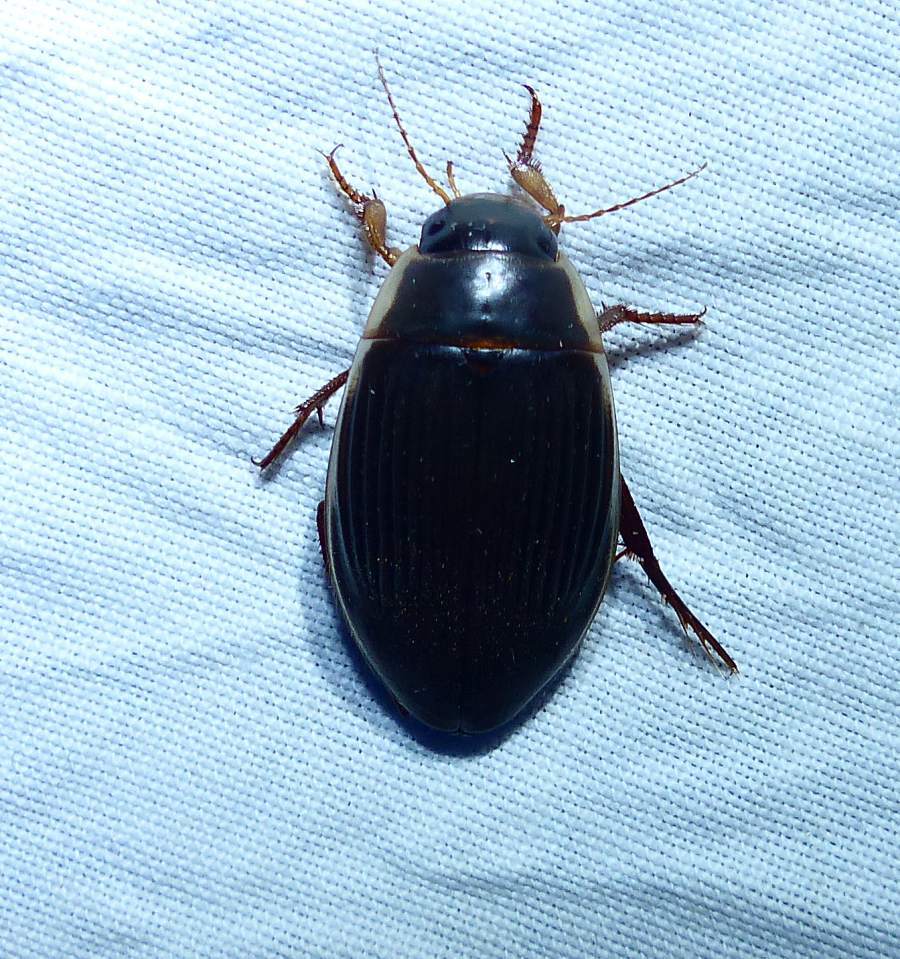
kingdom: Animalia
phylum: Arthropoda
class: Insecta
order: Coleoptera
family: Dytiscidae
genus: Dytiscus
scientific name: Dytiscus fasciventris
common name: Understriped diving beetle
